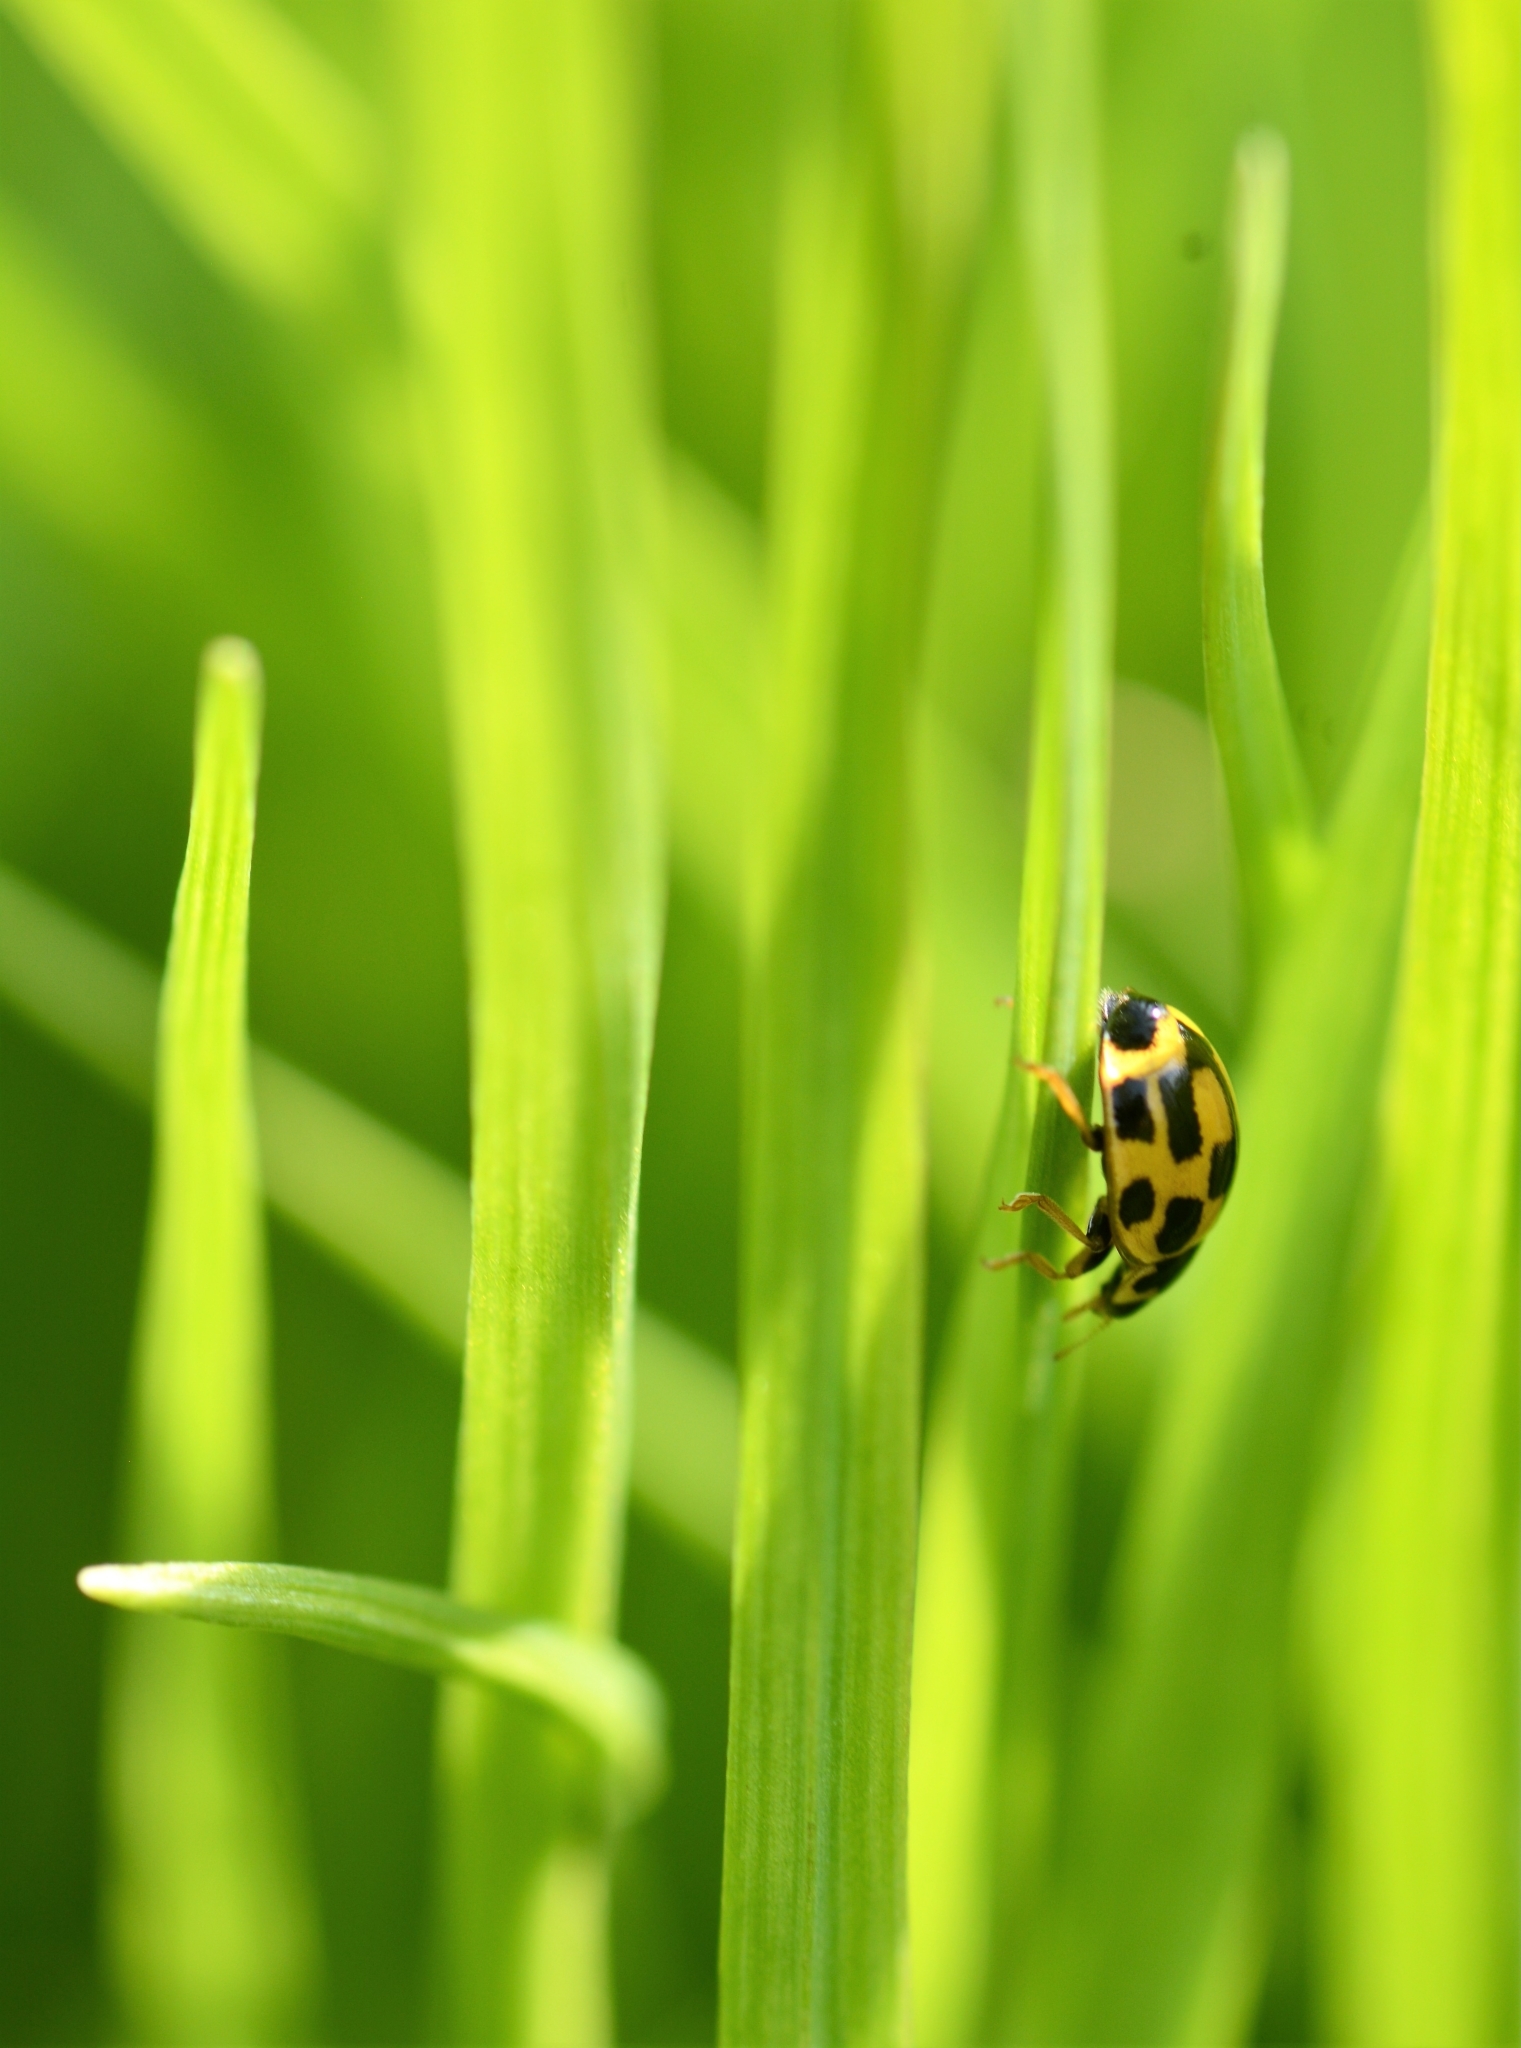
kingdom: Animalia
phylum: Arthropoda
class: Insecta
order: Coleoptera
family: Coccinellidae
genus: Propylaea
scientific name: Propylaea quatuordecimpunctata
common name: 14-spotted ladybird beetle
